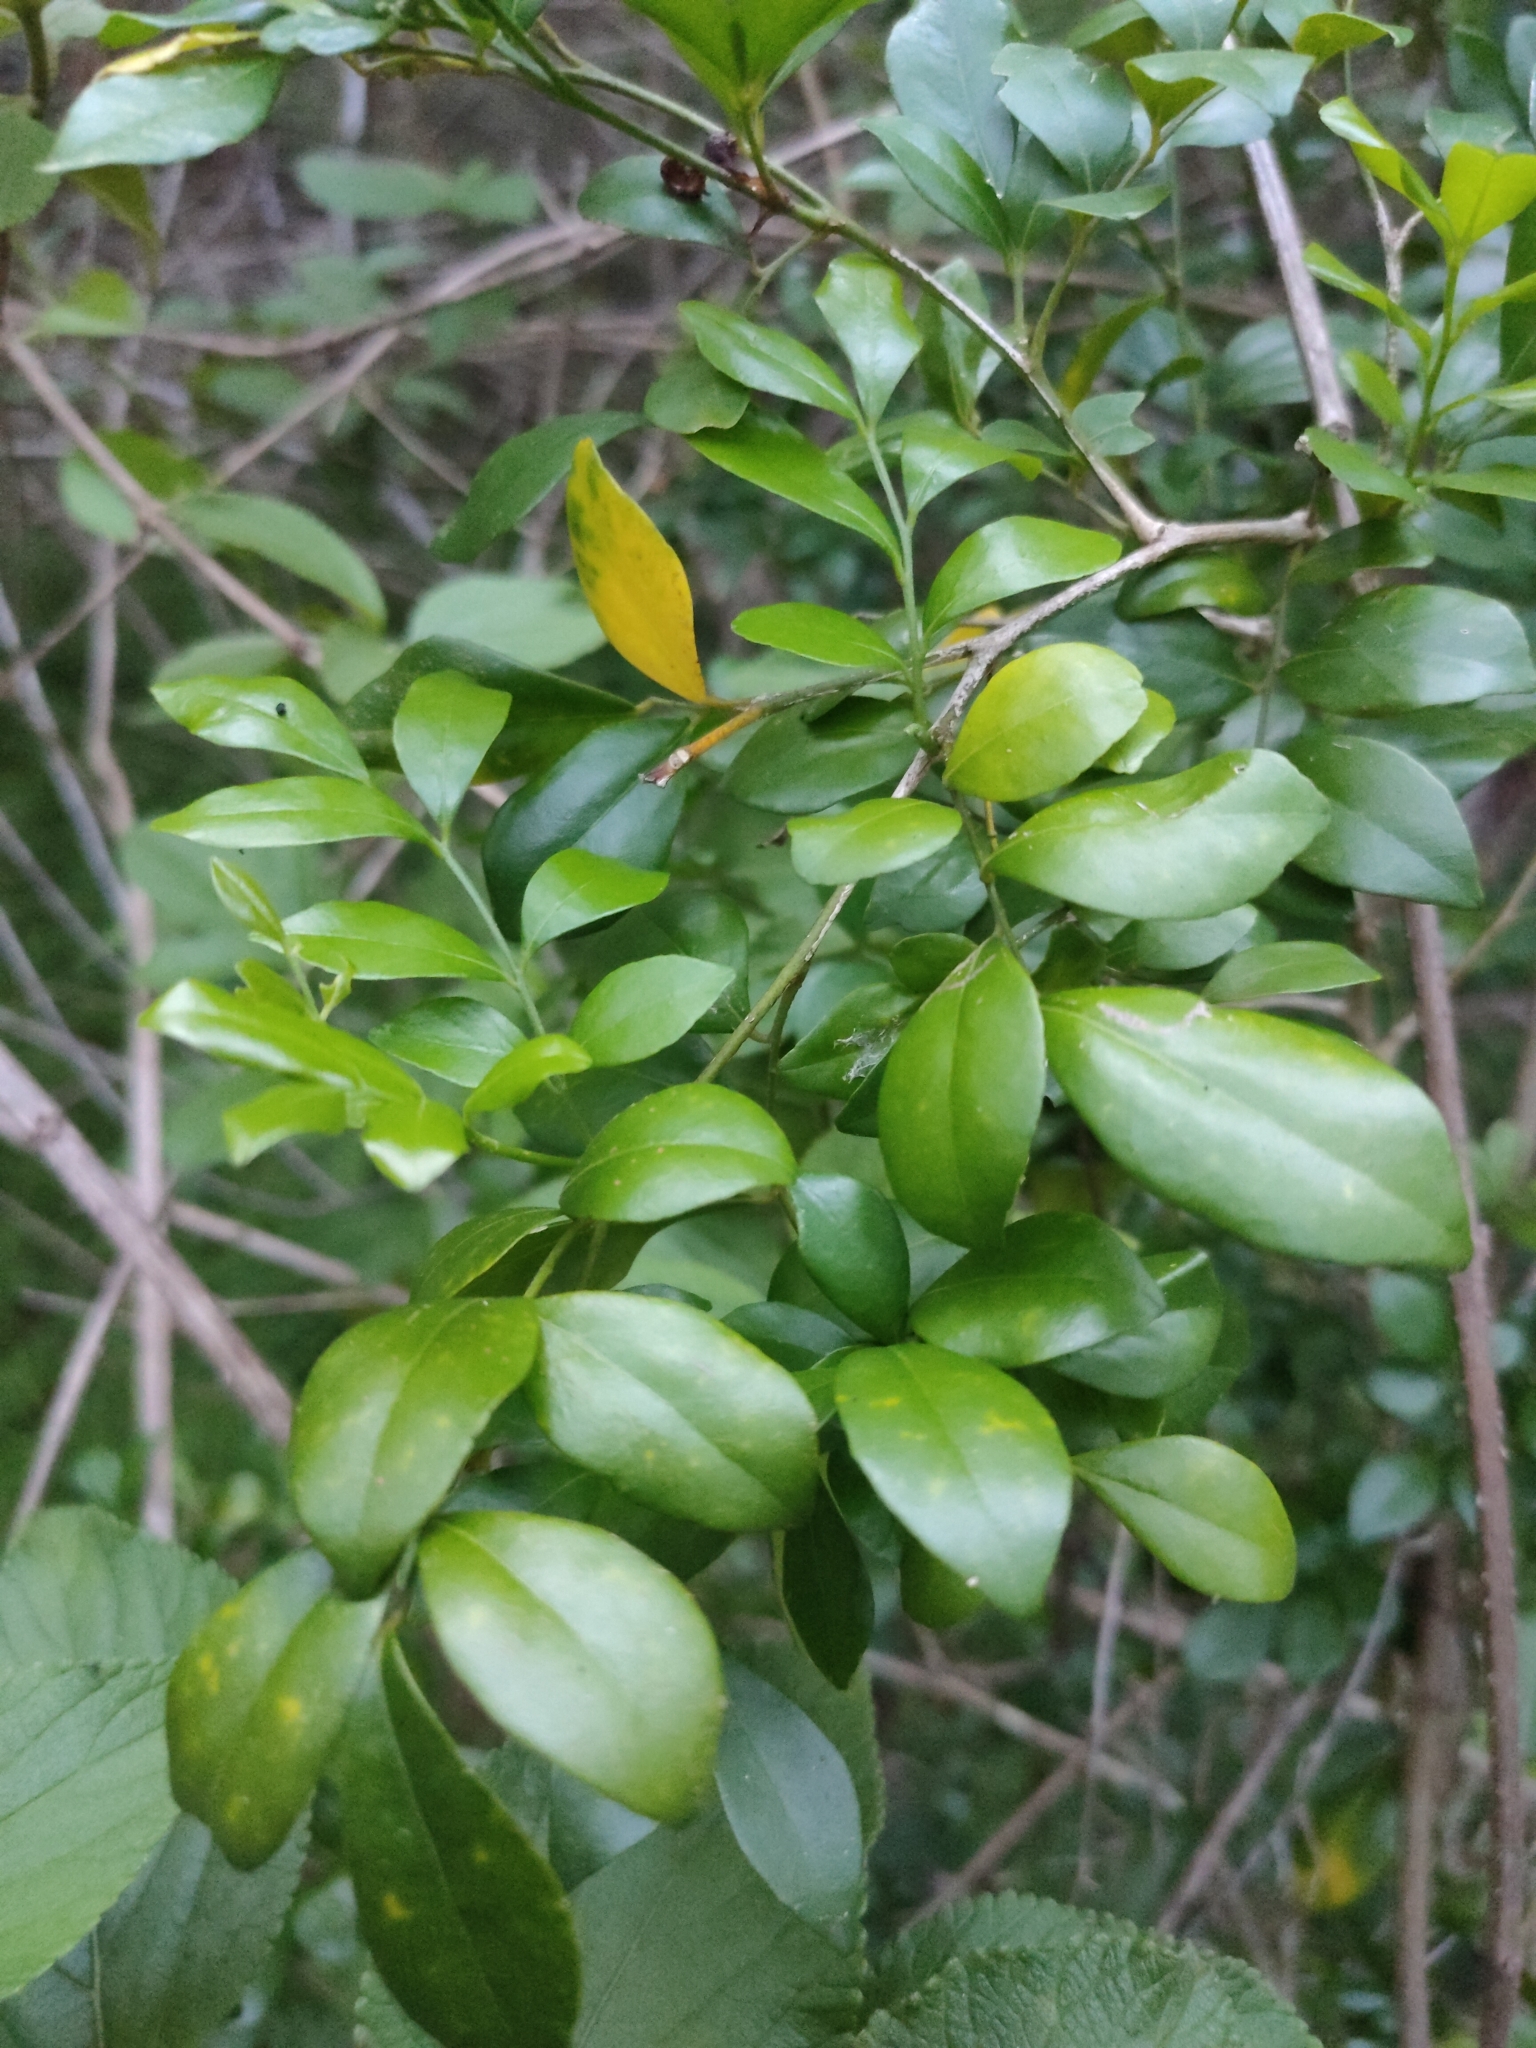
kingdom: Plantae
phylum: Tracheophyta
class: Magnoliopsida
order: Sapindales
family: Rutaceae
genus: Murraya
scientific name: Murraya paniculata
